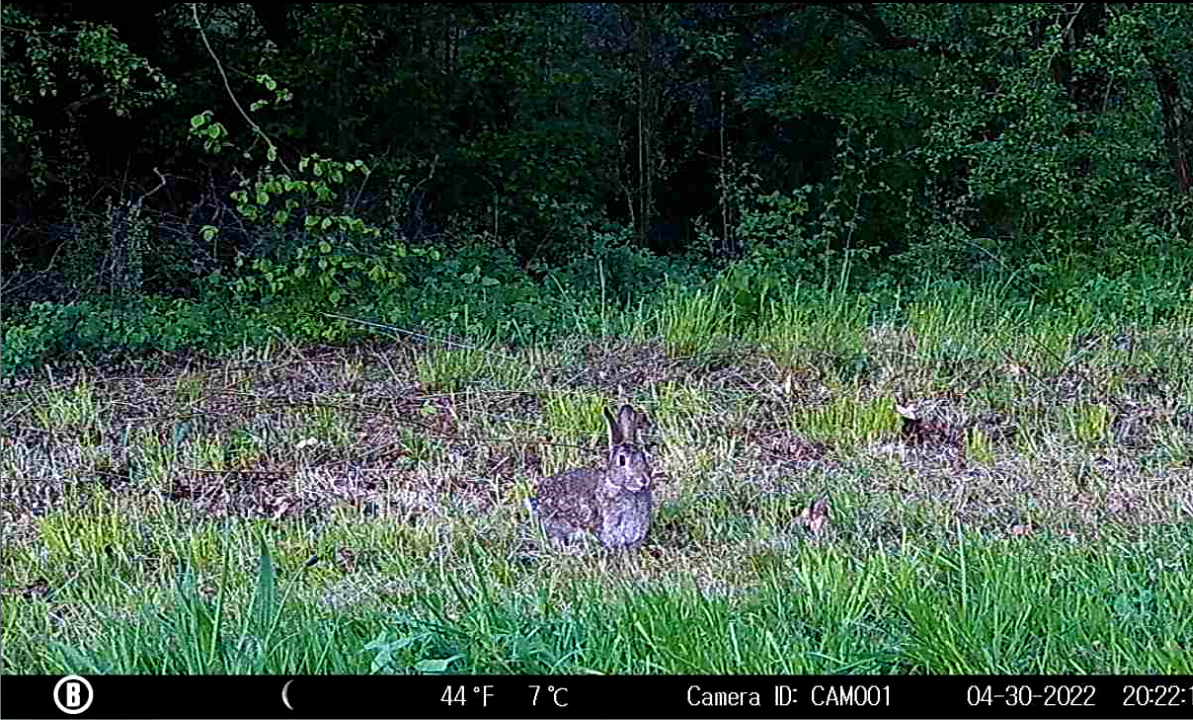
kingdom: Animalia
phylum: Chordata
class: Mammalia
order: Lagomorpha
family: Leporidae
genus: Oryctolagus
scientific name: Oryctolagus cuniculus
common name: European rabbit
